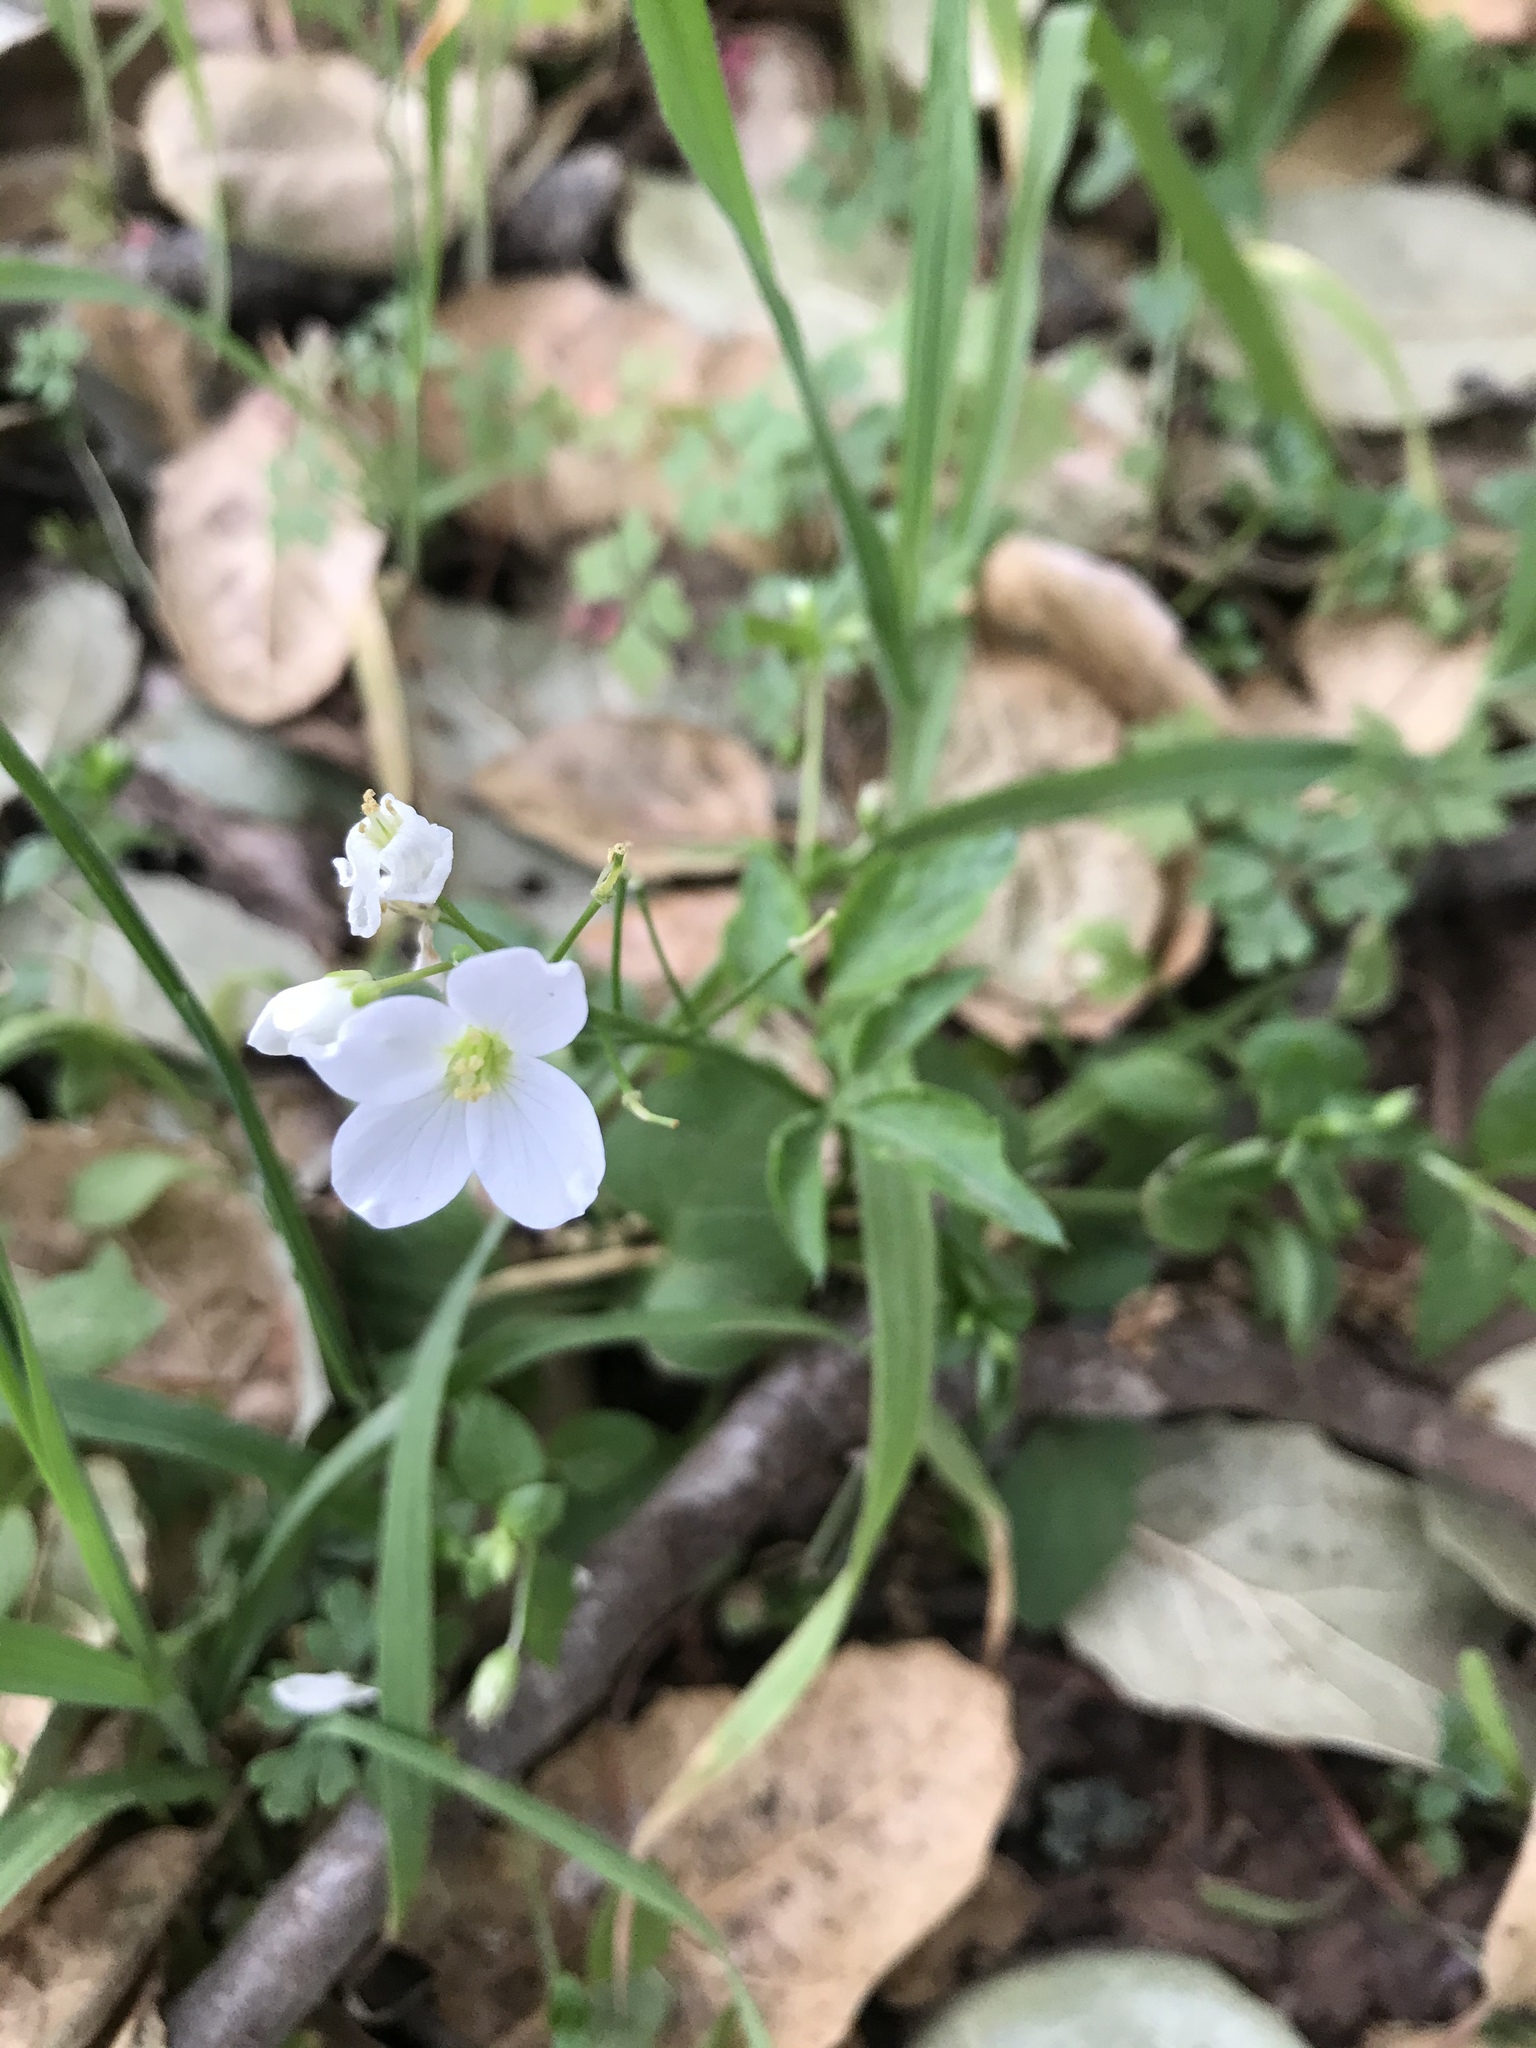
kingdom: Plantae
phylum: Tracheophyta
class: Magnoliopsida
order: Brassicales
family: Brassicaceae
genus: Cardamine
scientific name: Cardamine californica
